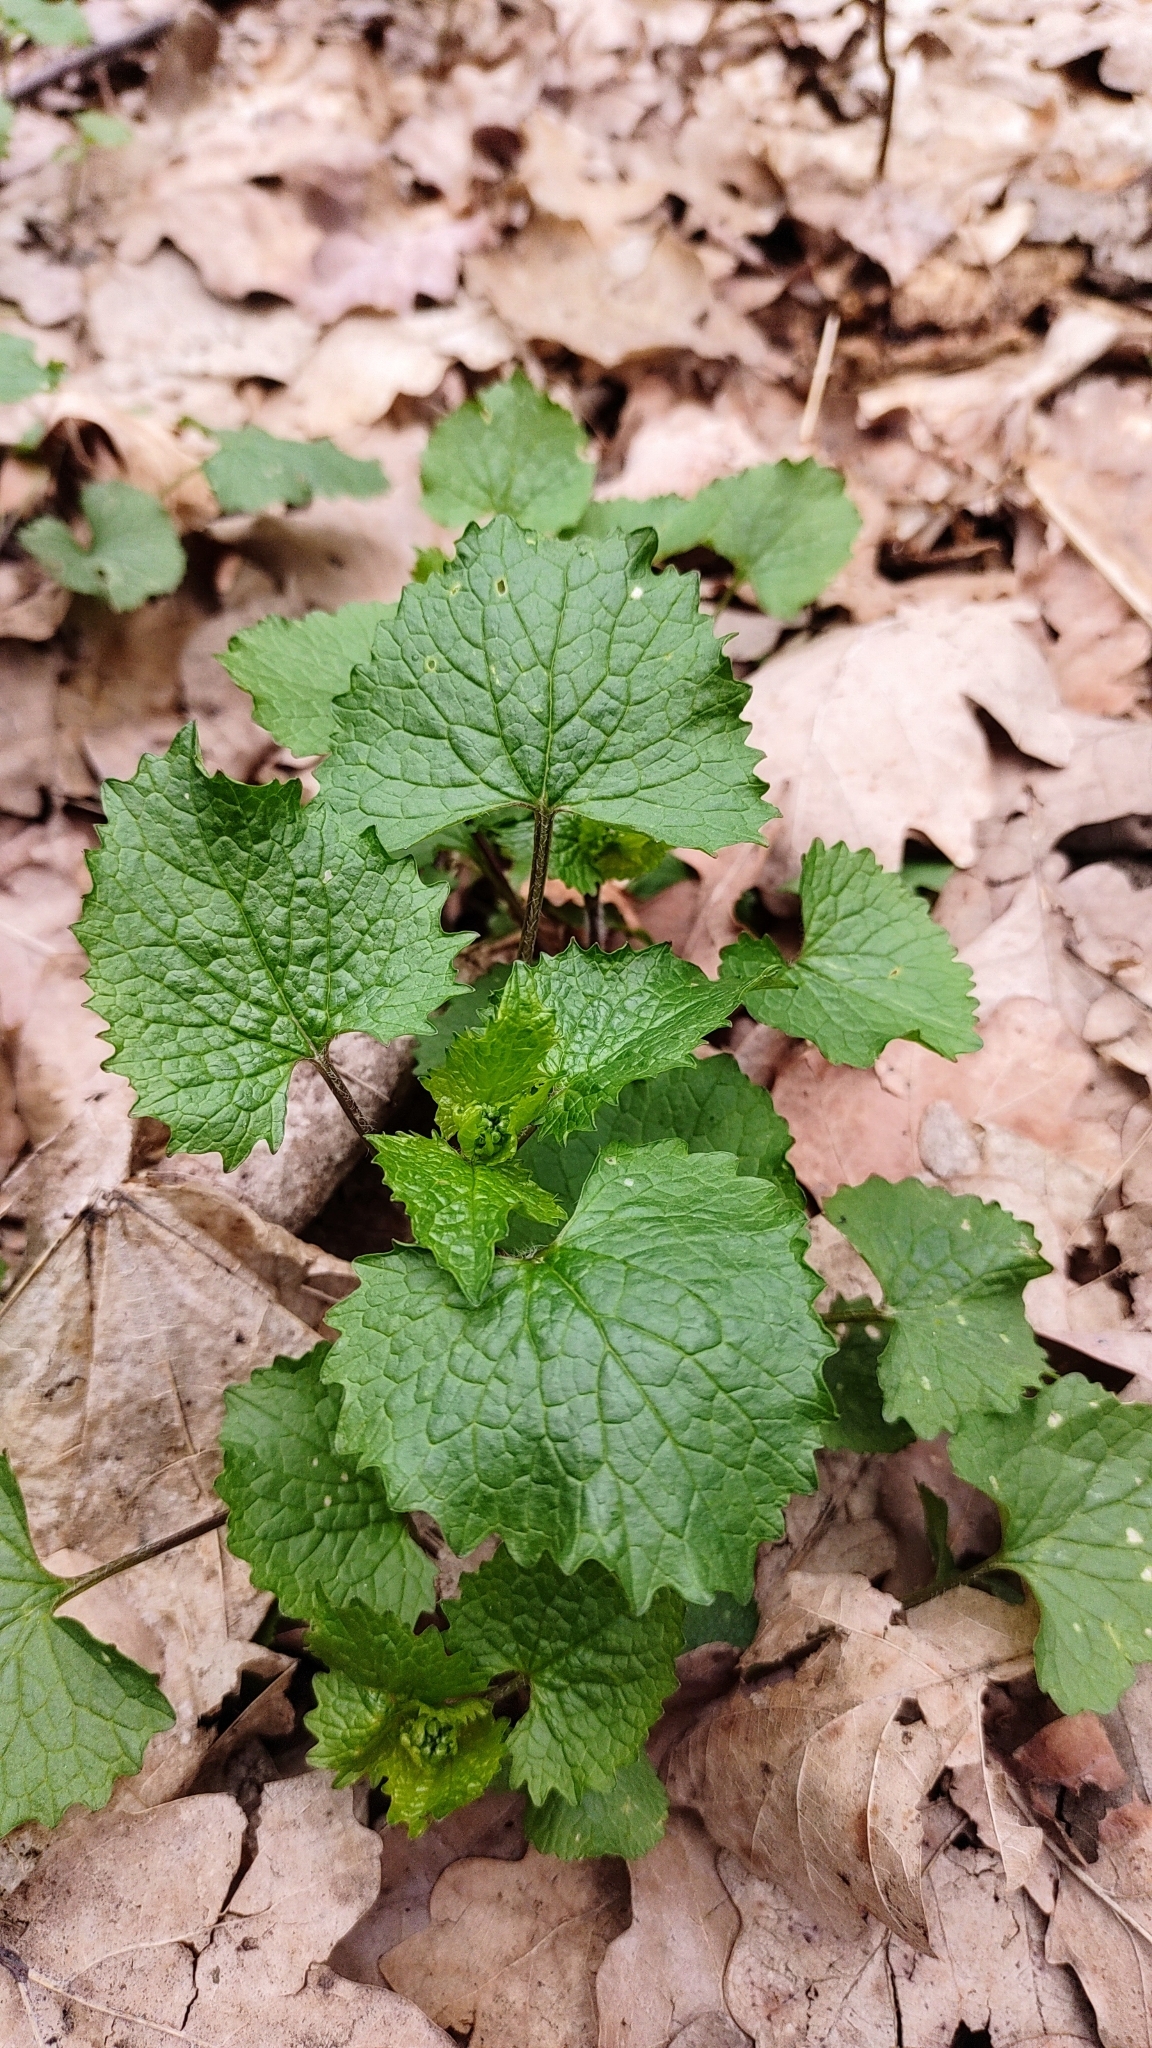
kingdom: Plantae
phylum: Tracheophyta
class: Magnoliopsida
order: Brassicales
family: Brassicaceae
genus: Alliaria
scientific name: Alliaria petiolata
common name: Garlic mustard
